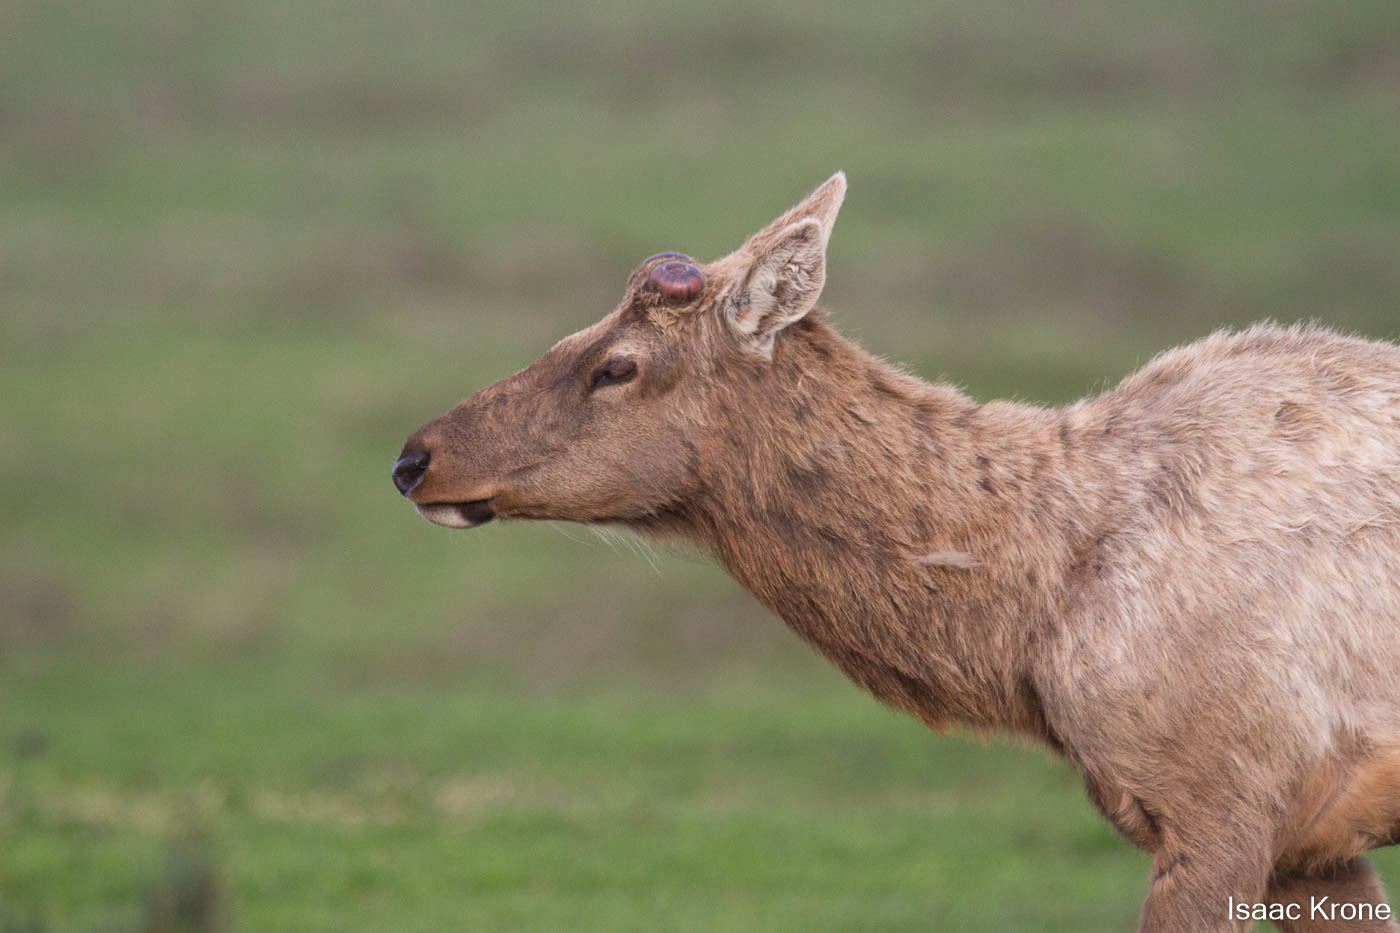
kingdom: Animalia
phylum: Chordata
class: Mammalia
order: Artiodactyla
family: Cervidae
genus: Cervus
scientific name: Cervus elaphus
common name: Red deer
